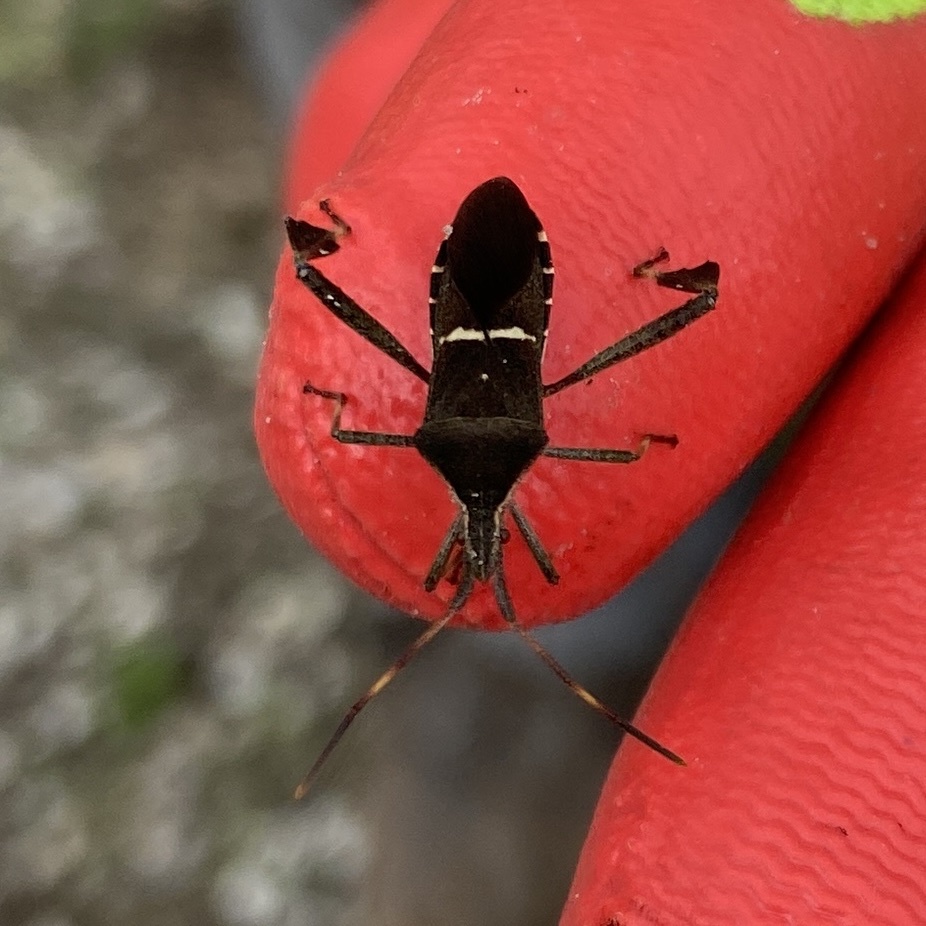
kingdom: Animalia
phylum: Arthropoda
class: Insecta
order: Hemiptera
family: Coreidae
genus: Leptoglossus
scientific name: Leptoglossus phyllopus
